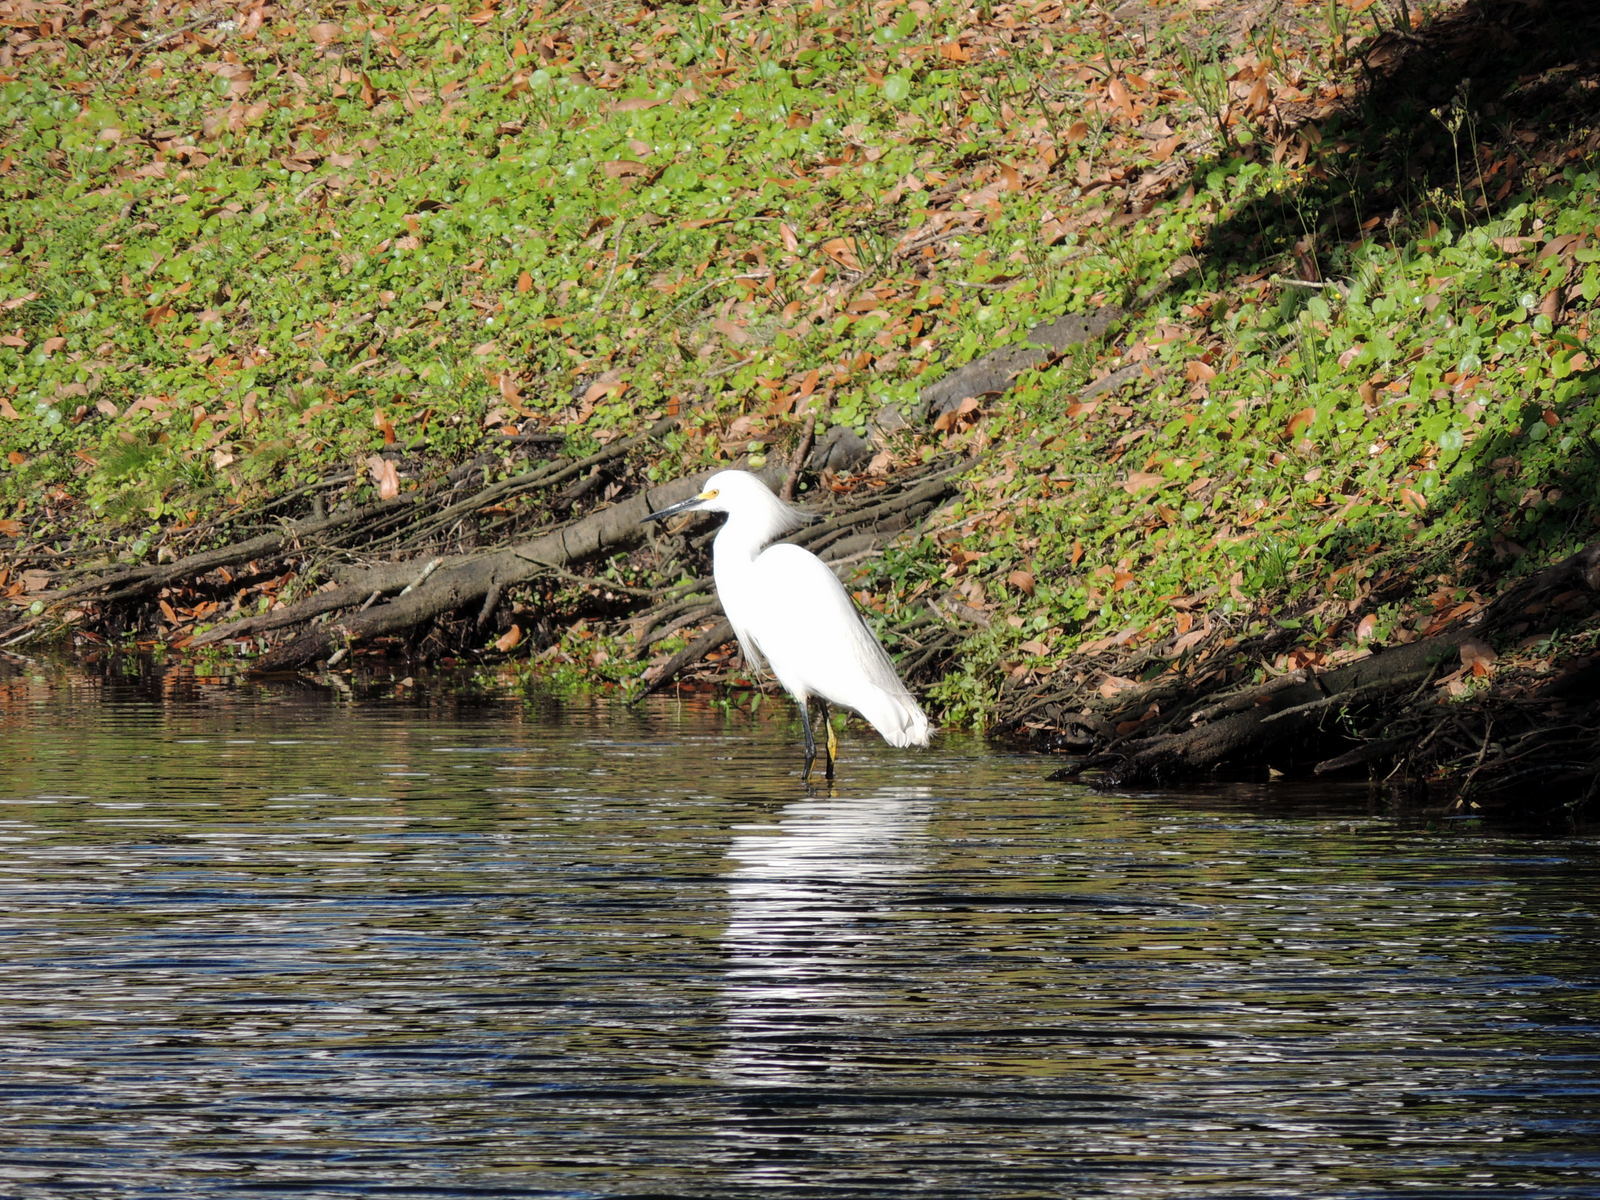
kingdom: Animalia
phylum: Chordata
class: Aves
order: Pelecaniformes
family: Ardeidae
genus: Egretta
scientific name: Egretta thula
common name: Snowy egret
